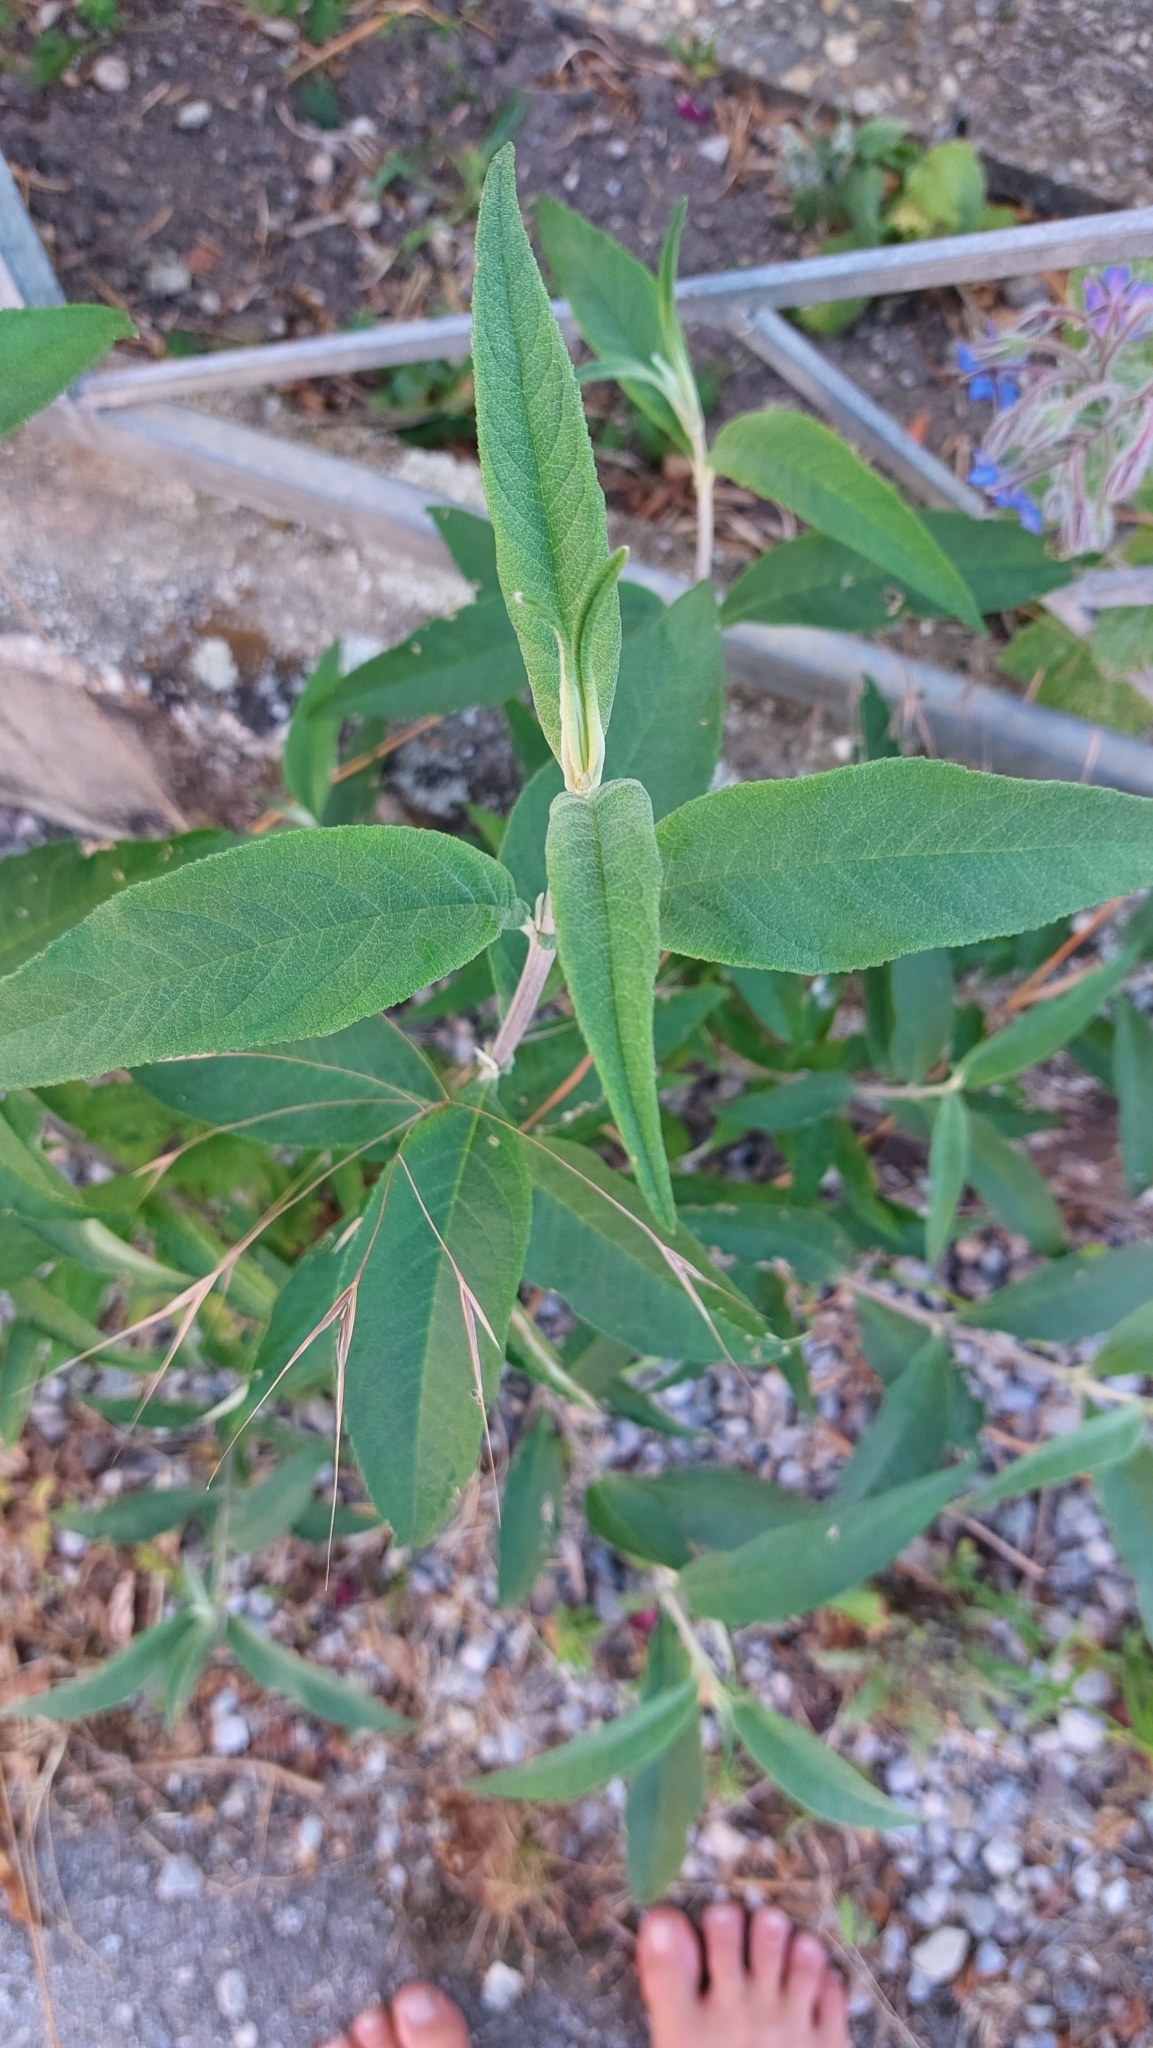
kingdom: Plantae
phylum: Tracheophyta
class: Magnoliopsida
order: Lamiales
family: Scrophulariaceae
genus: Buddleja
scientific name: Buddleja davidii
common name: Butterfly-bush
